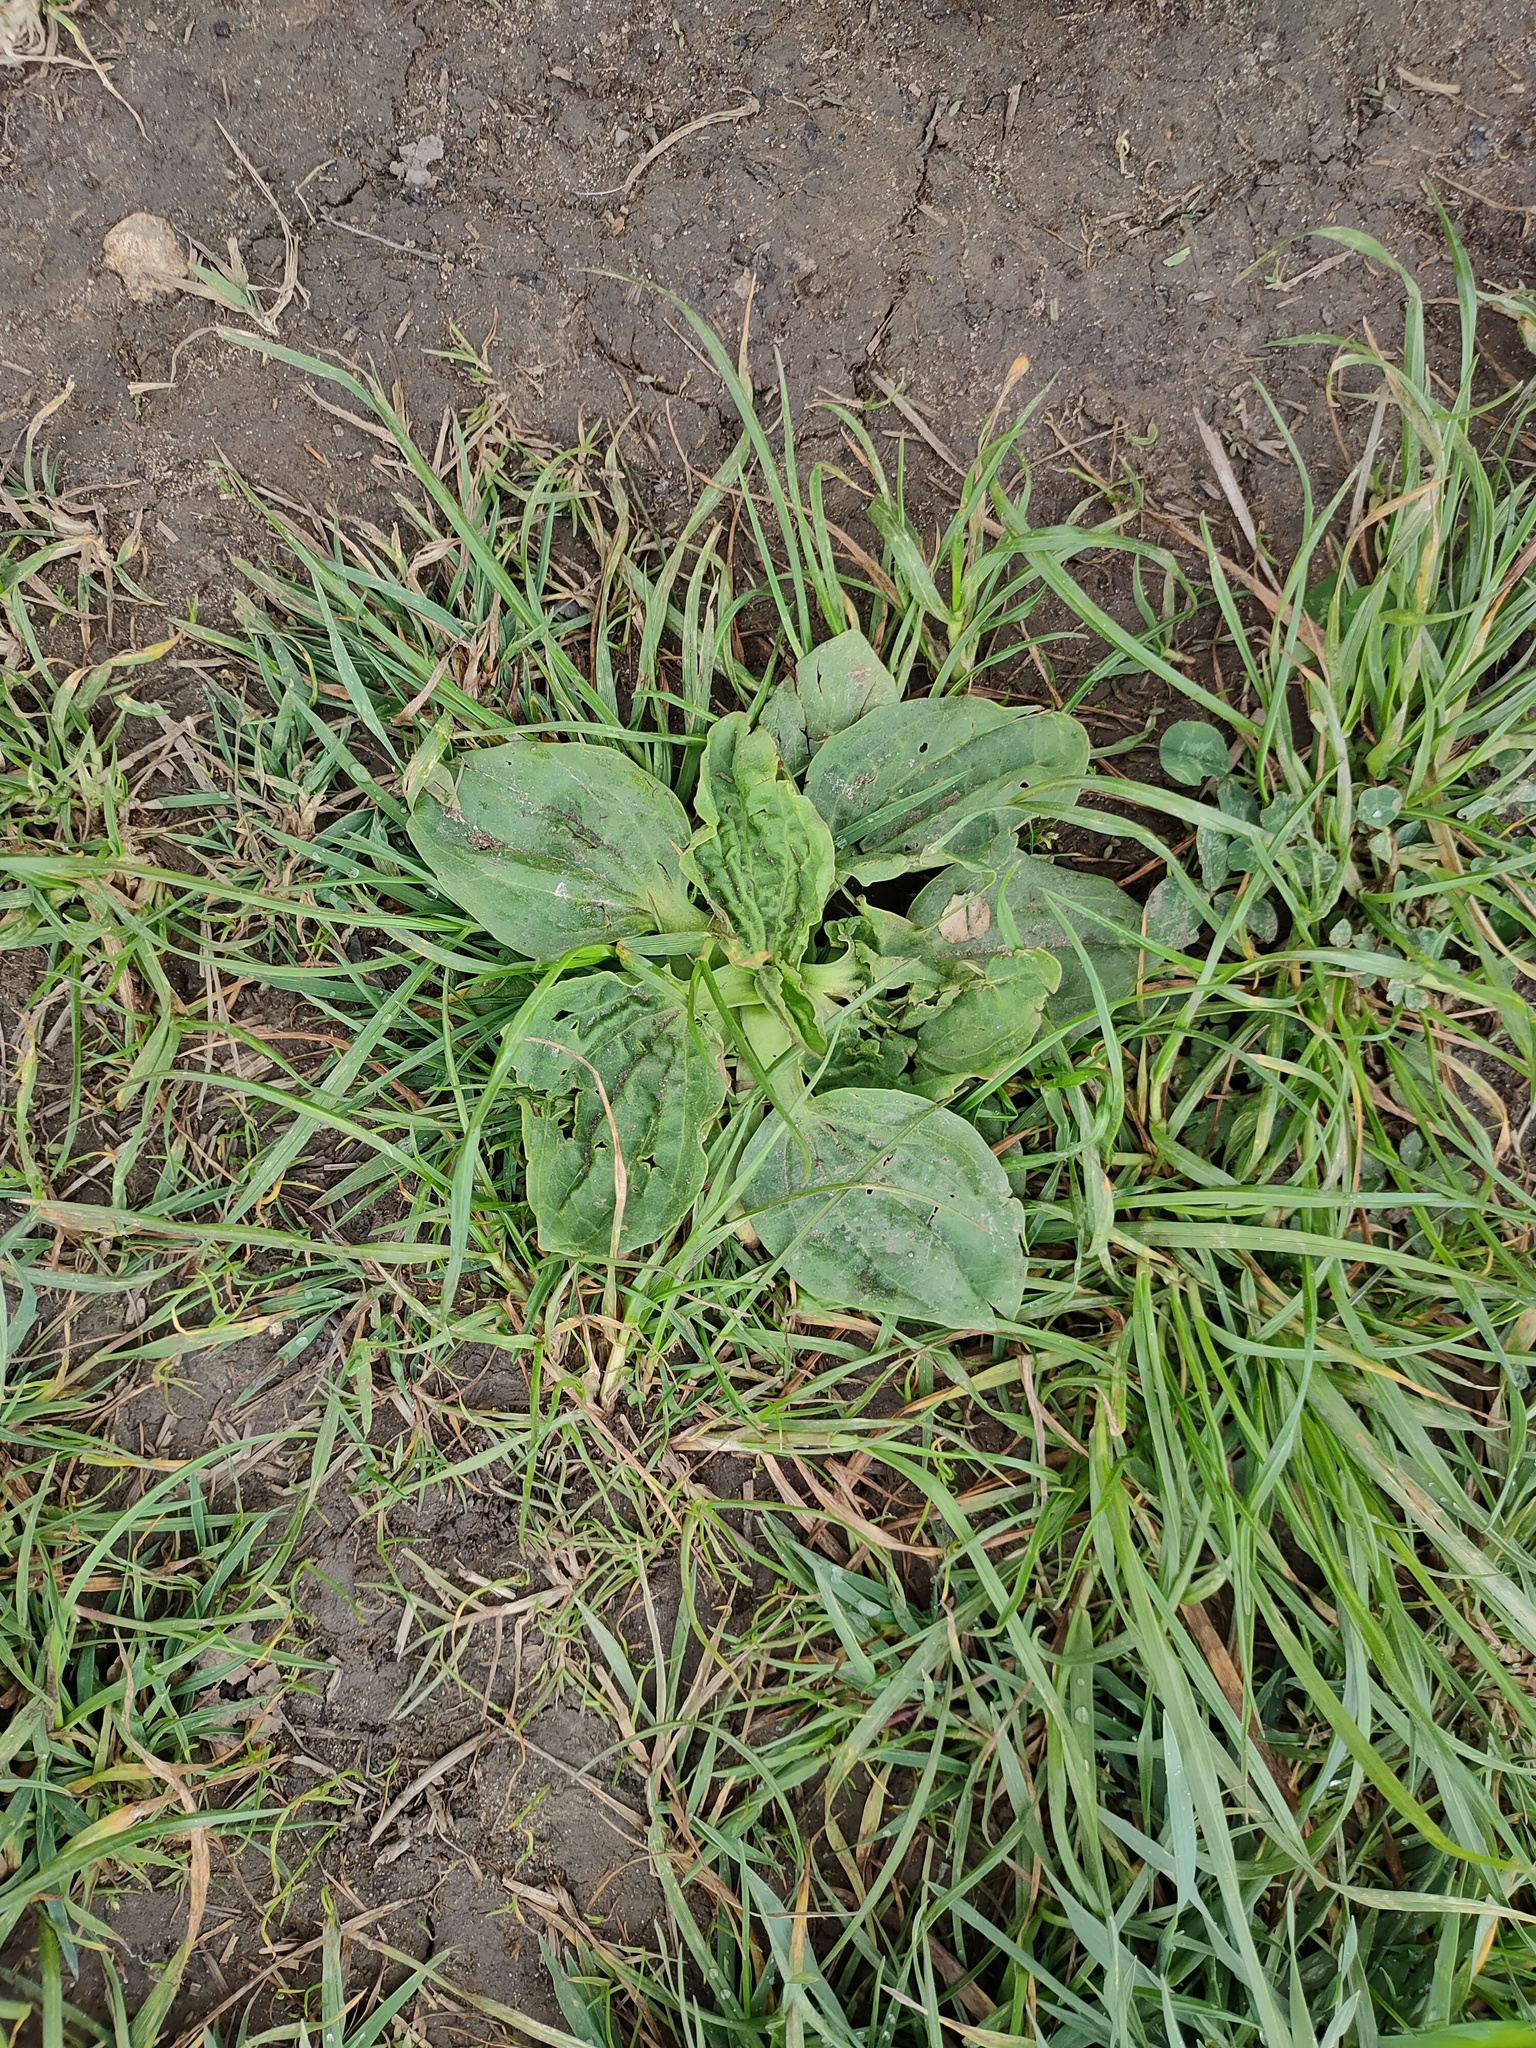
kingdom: Plantae
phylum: Tracheophyta
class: Magnoliopsida
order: Lamiales
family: Plantaginaceae
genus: Plantago
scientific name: Plantago major
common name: Common plantain
